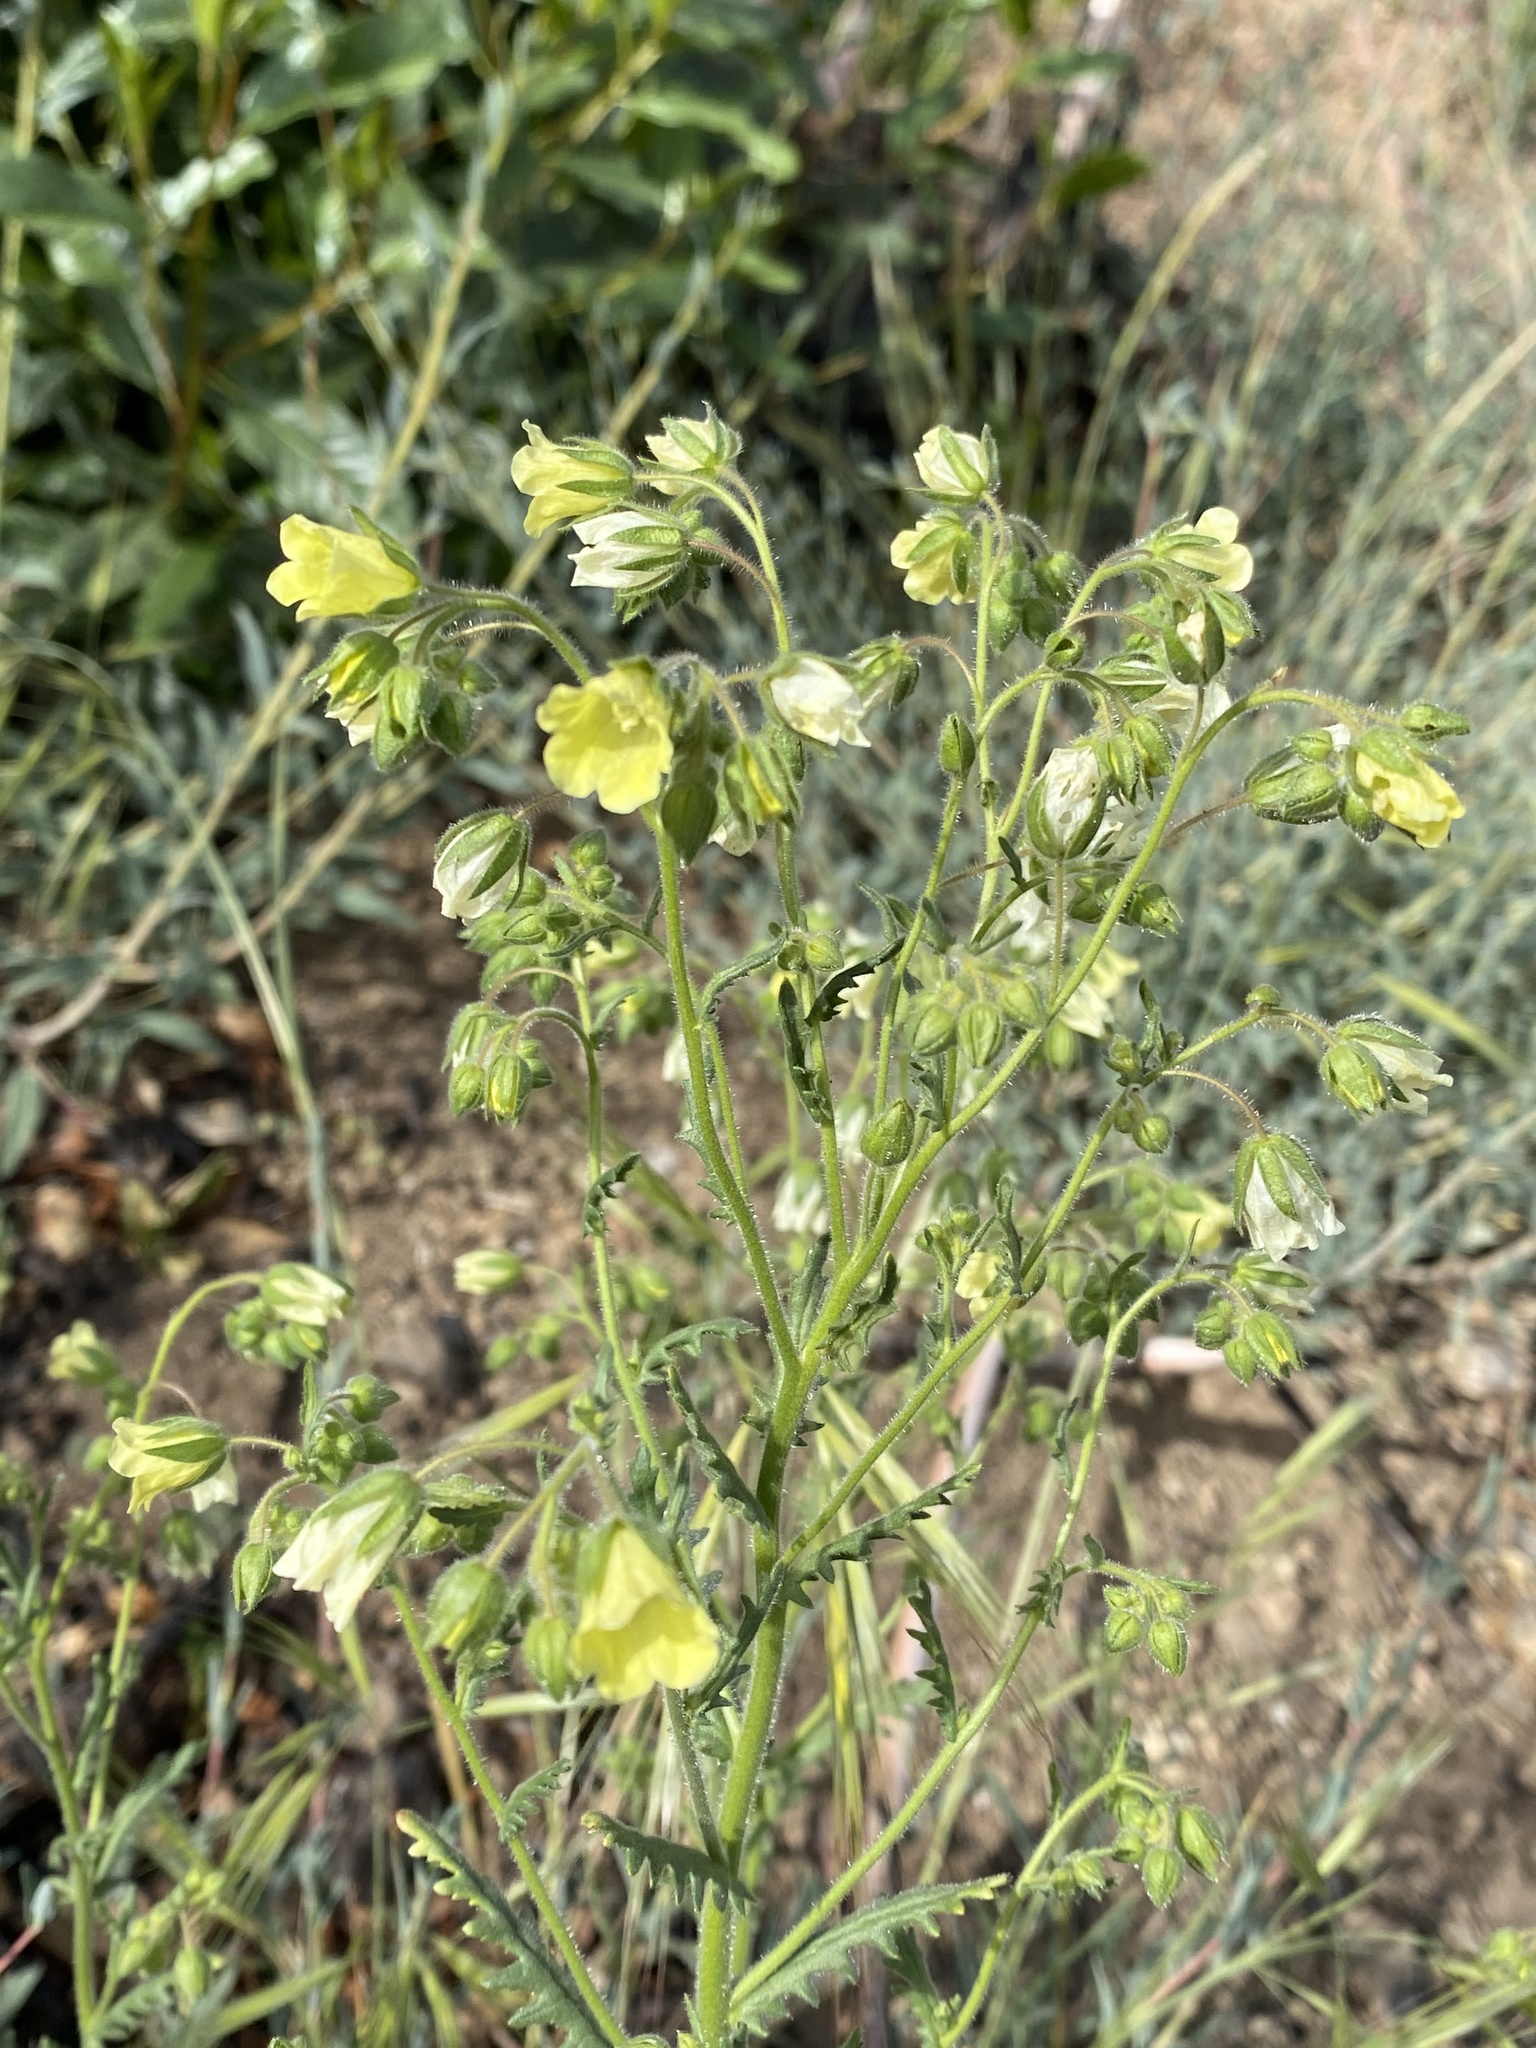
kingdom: Plantae
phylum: Tracheophyta
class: Magnoliopsida
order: Boraginales
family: Hydrophyllaceae
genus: Emmenanthe
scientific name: Emmenanthe penduliflora
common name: Whispering-bells
